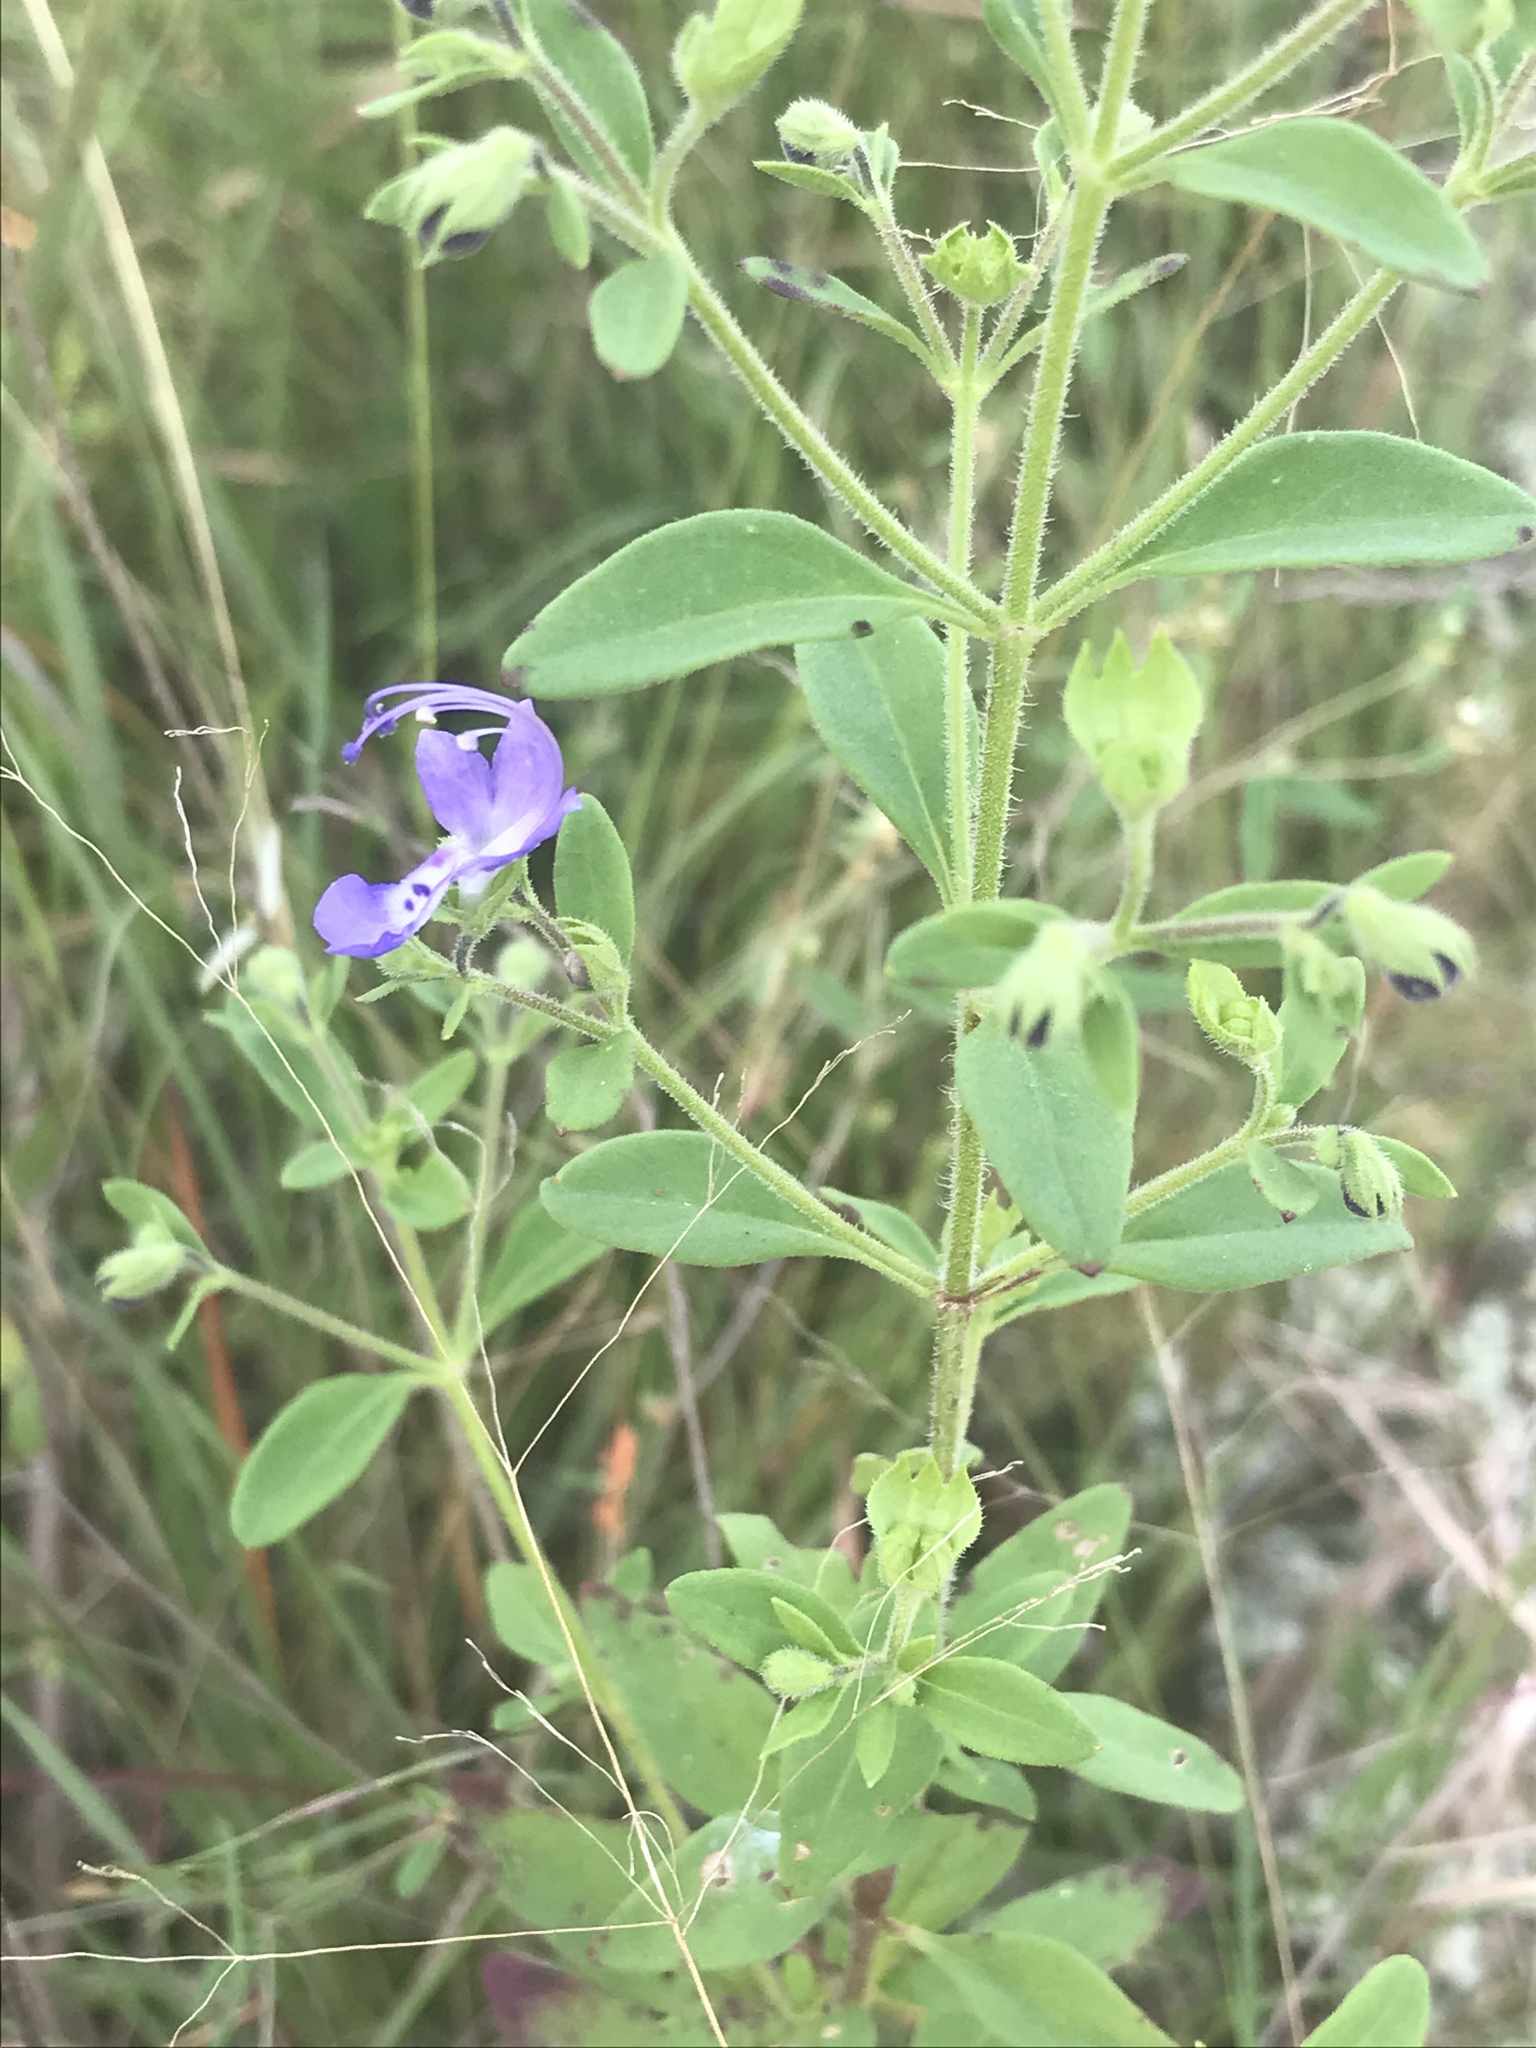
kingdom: Plantae
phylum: Tracheophyta
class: Magnoliopsida
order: Lamiales
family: Lamiaceae
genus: Trichostema
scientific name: Trichostema dichotomum
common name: Bastard pennyroyal
